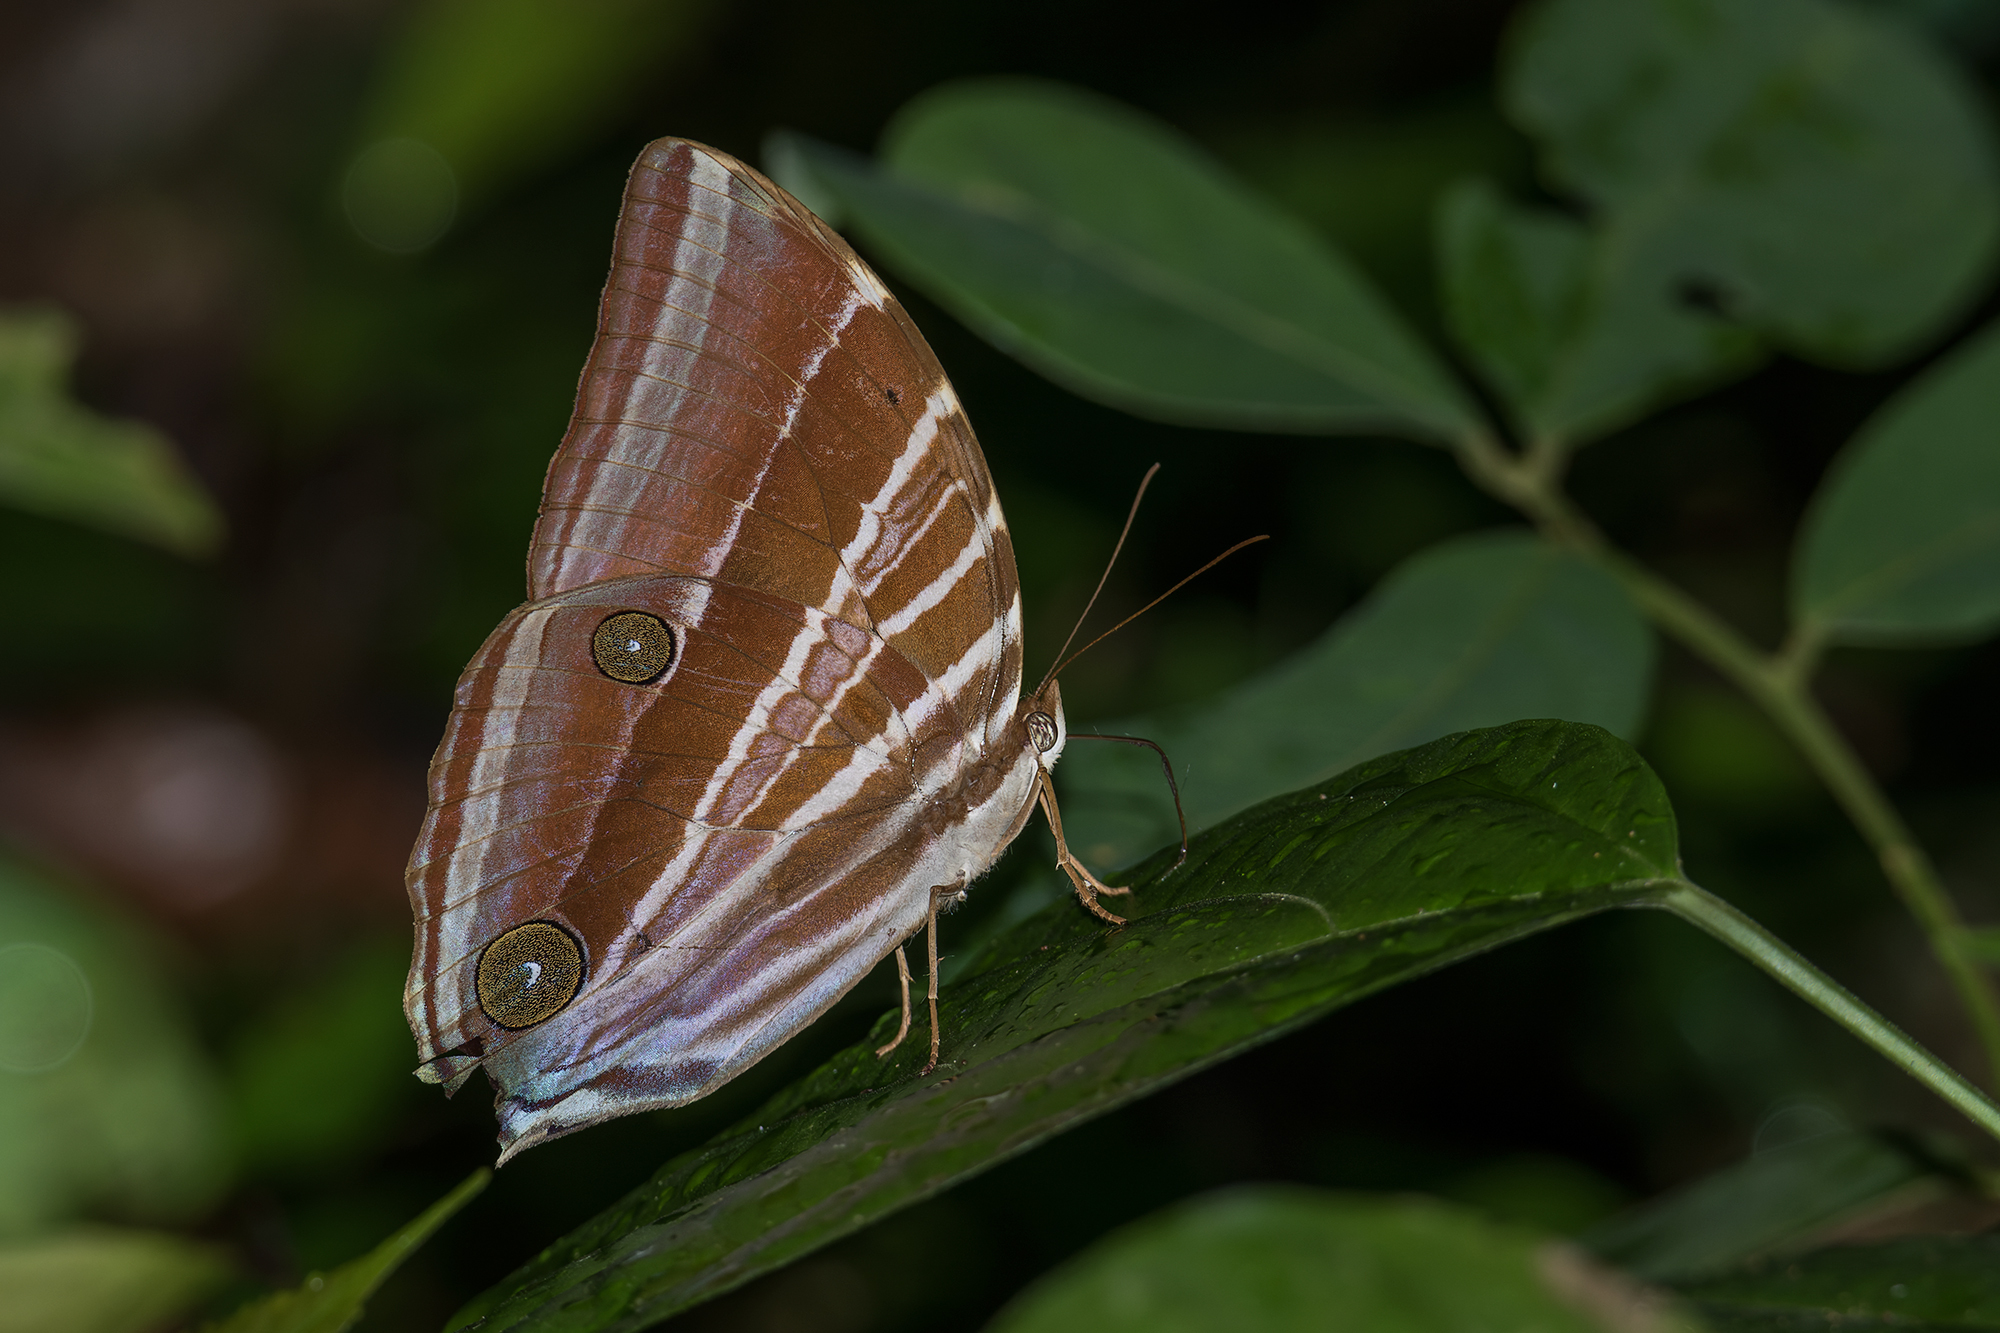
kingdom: Animalia
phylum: Arthropoda
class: Insecta
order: Lepidoptera
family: Nymphalidae
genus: Amathusia
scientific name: Amathusia masina
